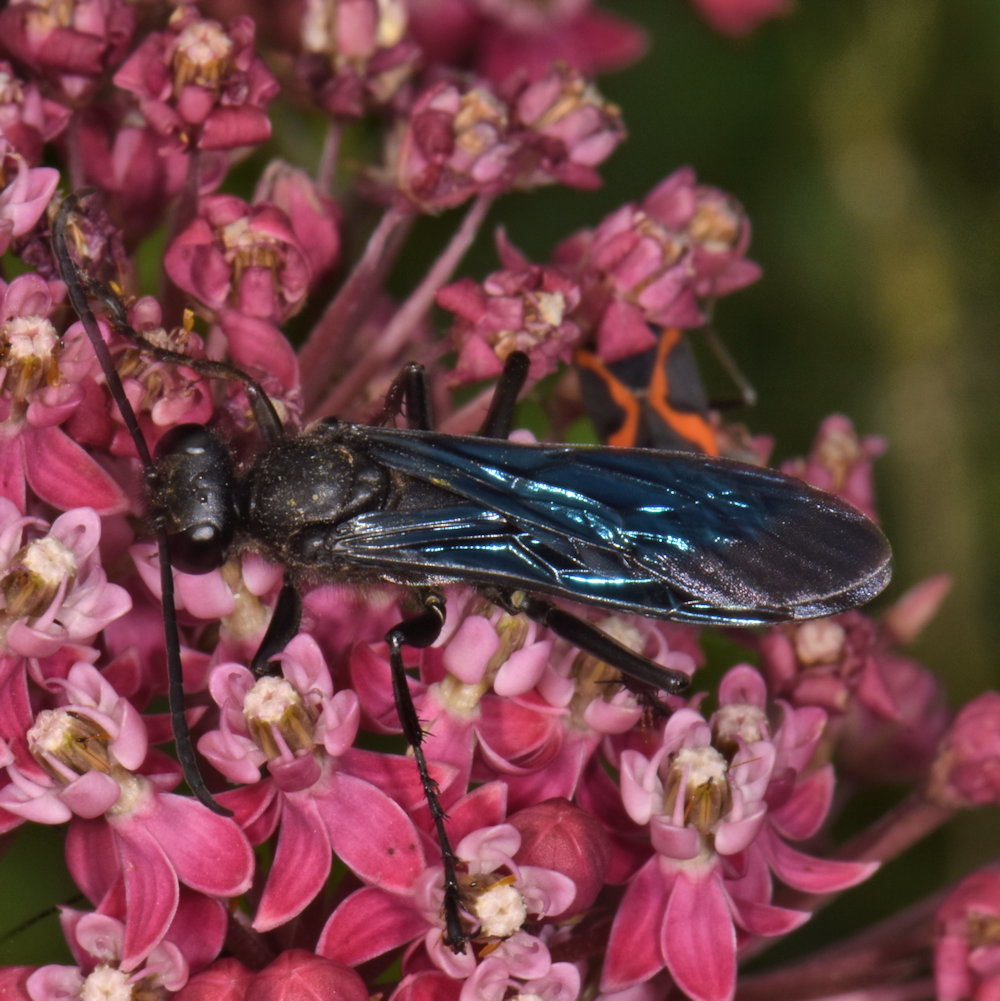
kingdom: Animalia
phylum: Arthropoda
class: Insecta
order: Hymenoptera
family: Sphecidae
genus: Sphex
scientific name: Sphex pensylvanicus
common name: Great black digger wasp
